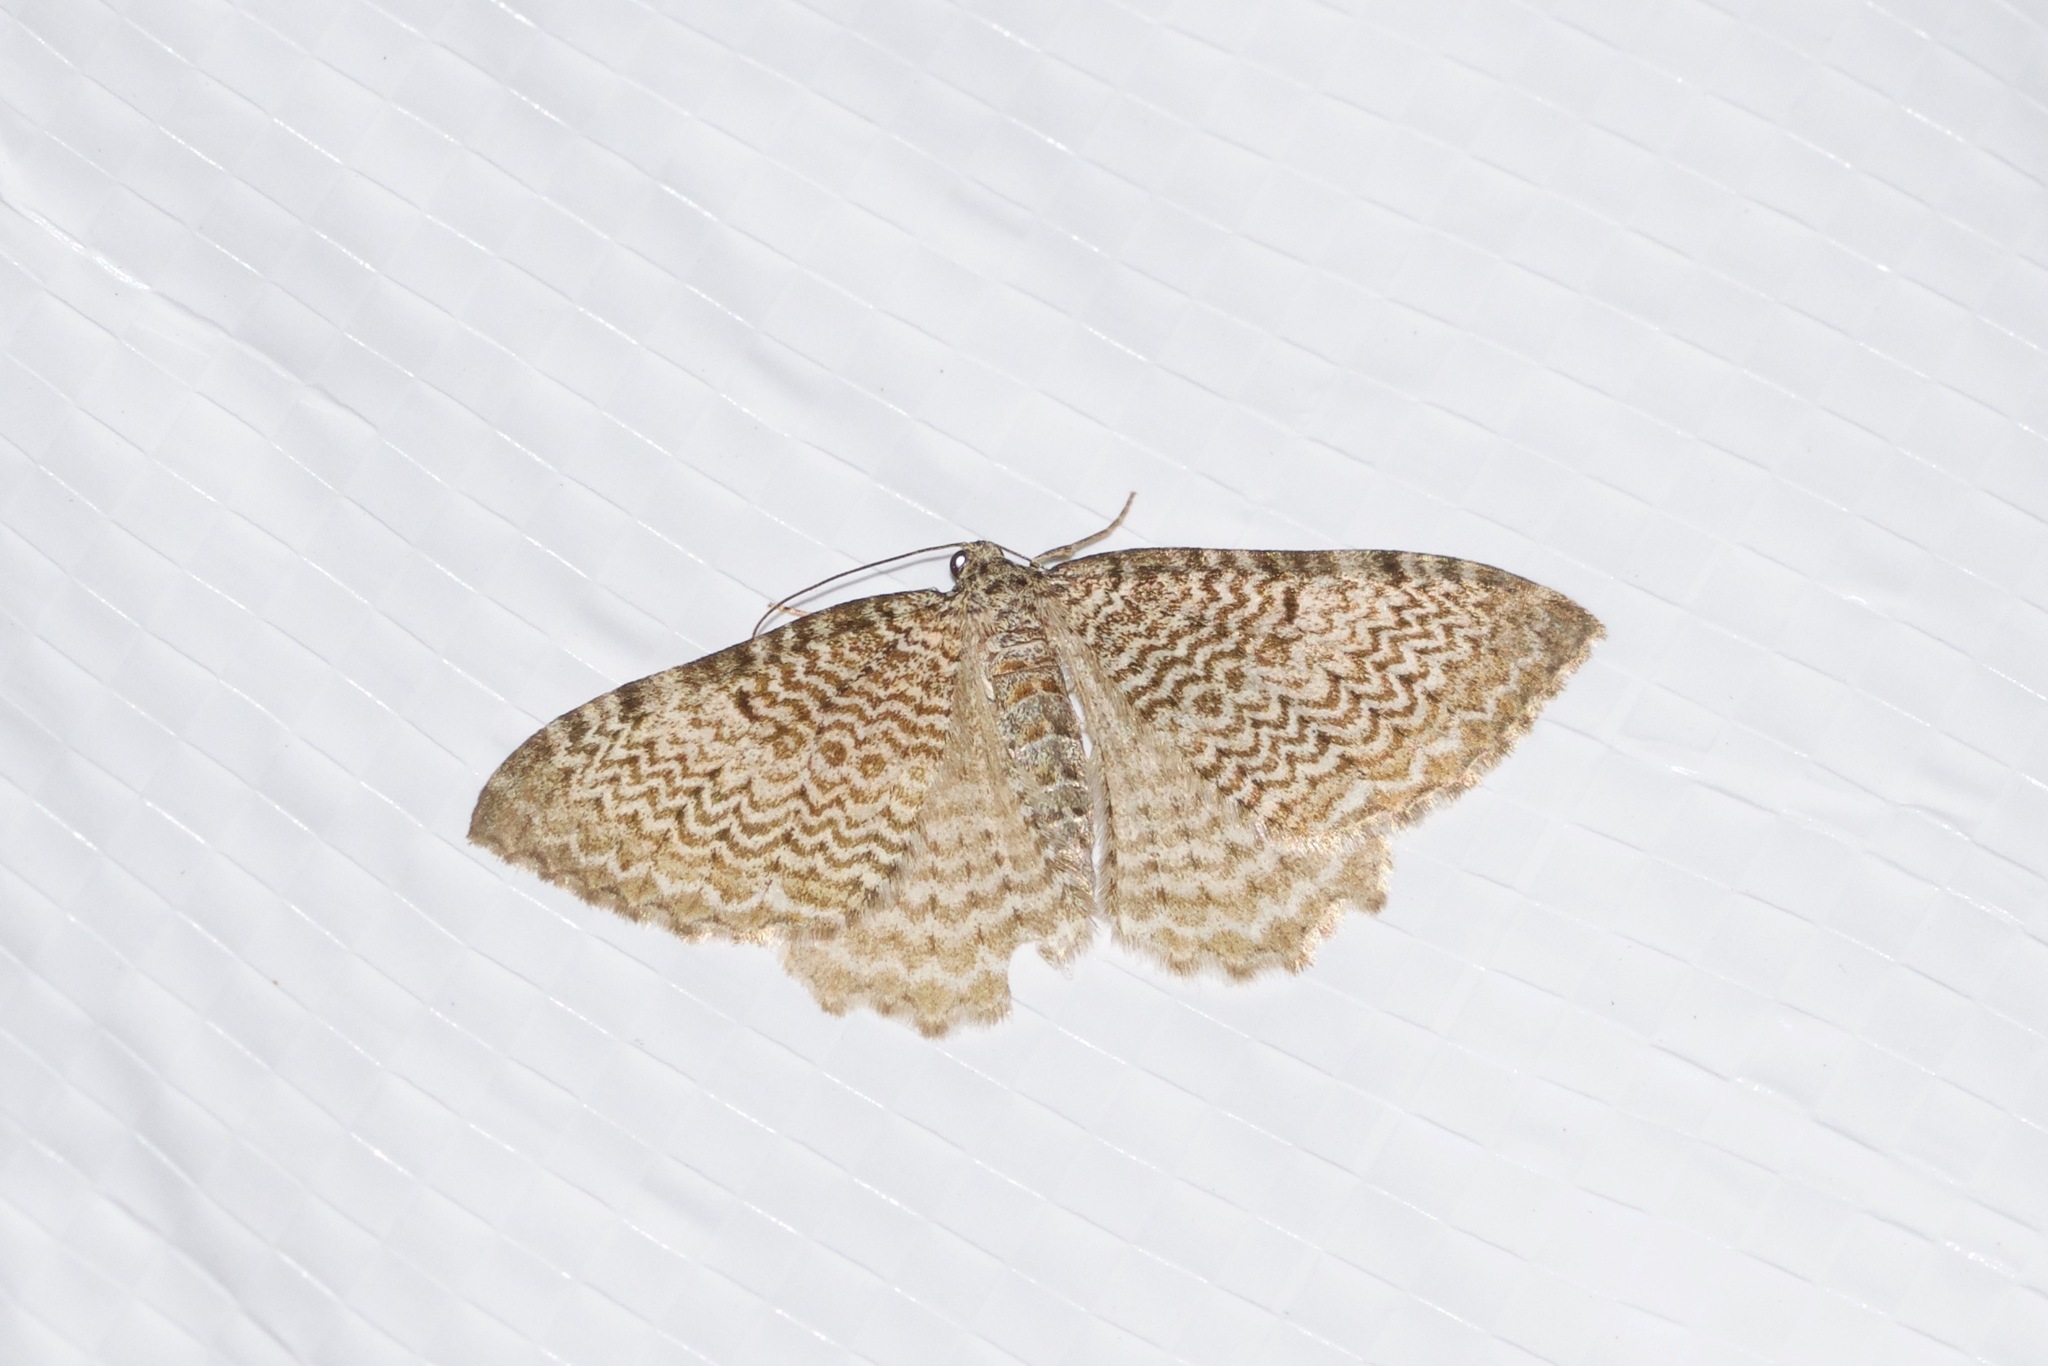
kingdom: Animalia
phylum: Arthropoda
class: Insecta
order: Lepidoptera
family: Geometridae
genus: Rheumaptera
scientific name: Rheumaptera prunivorata
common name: Cherry scallop shell moth
